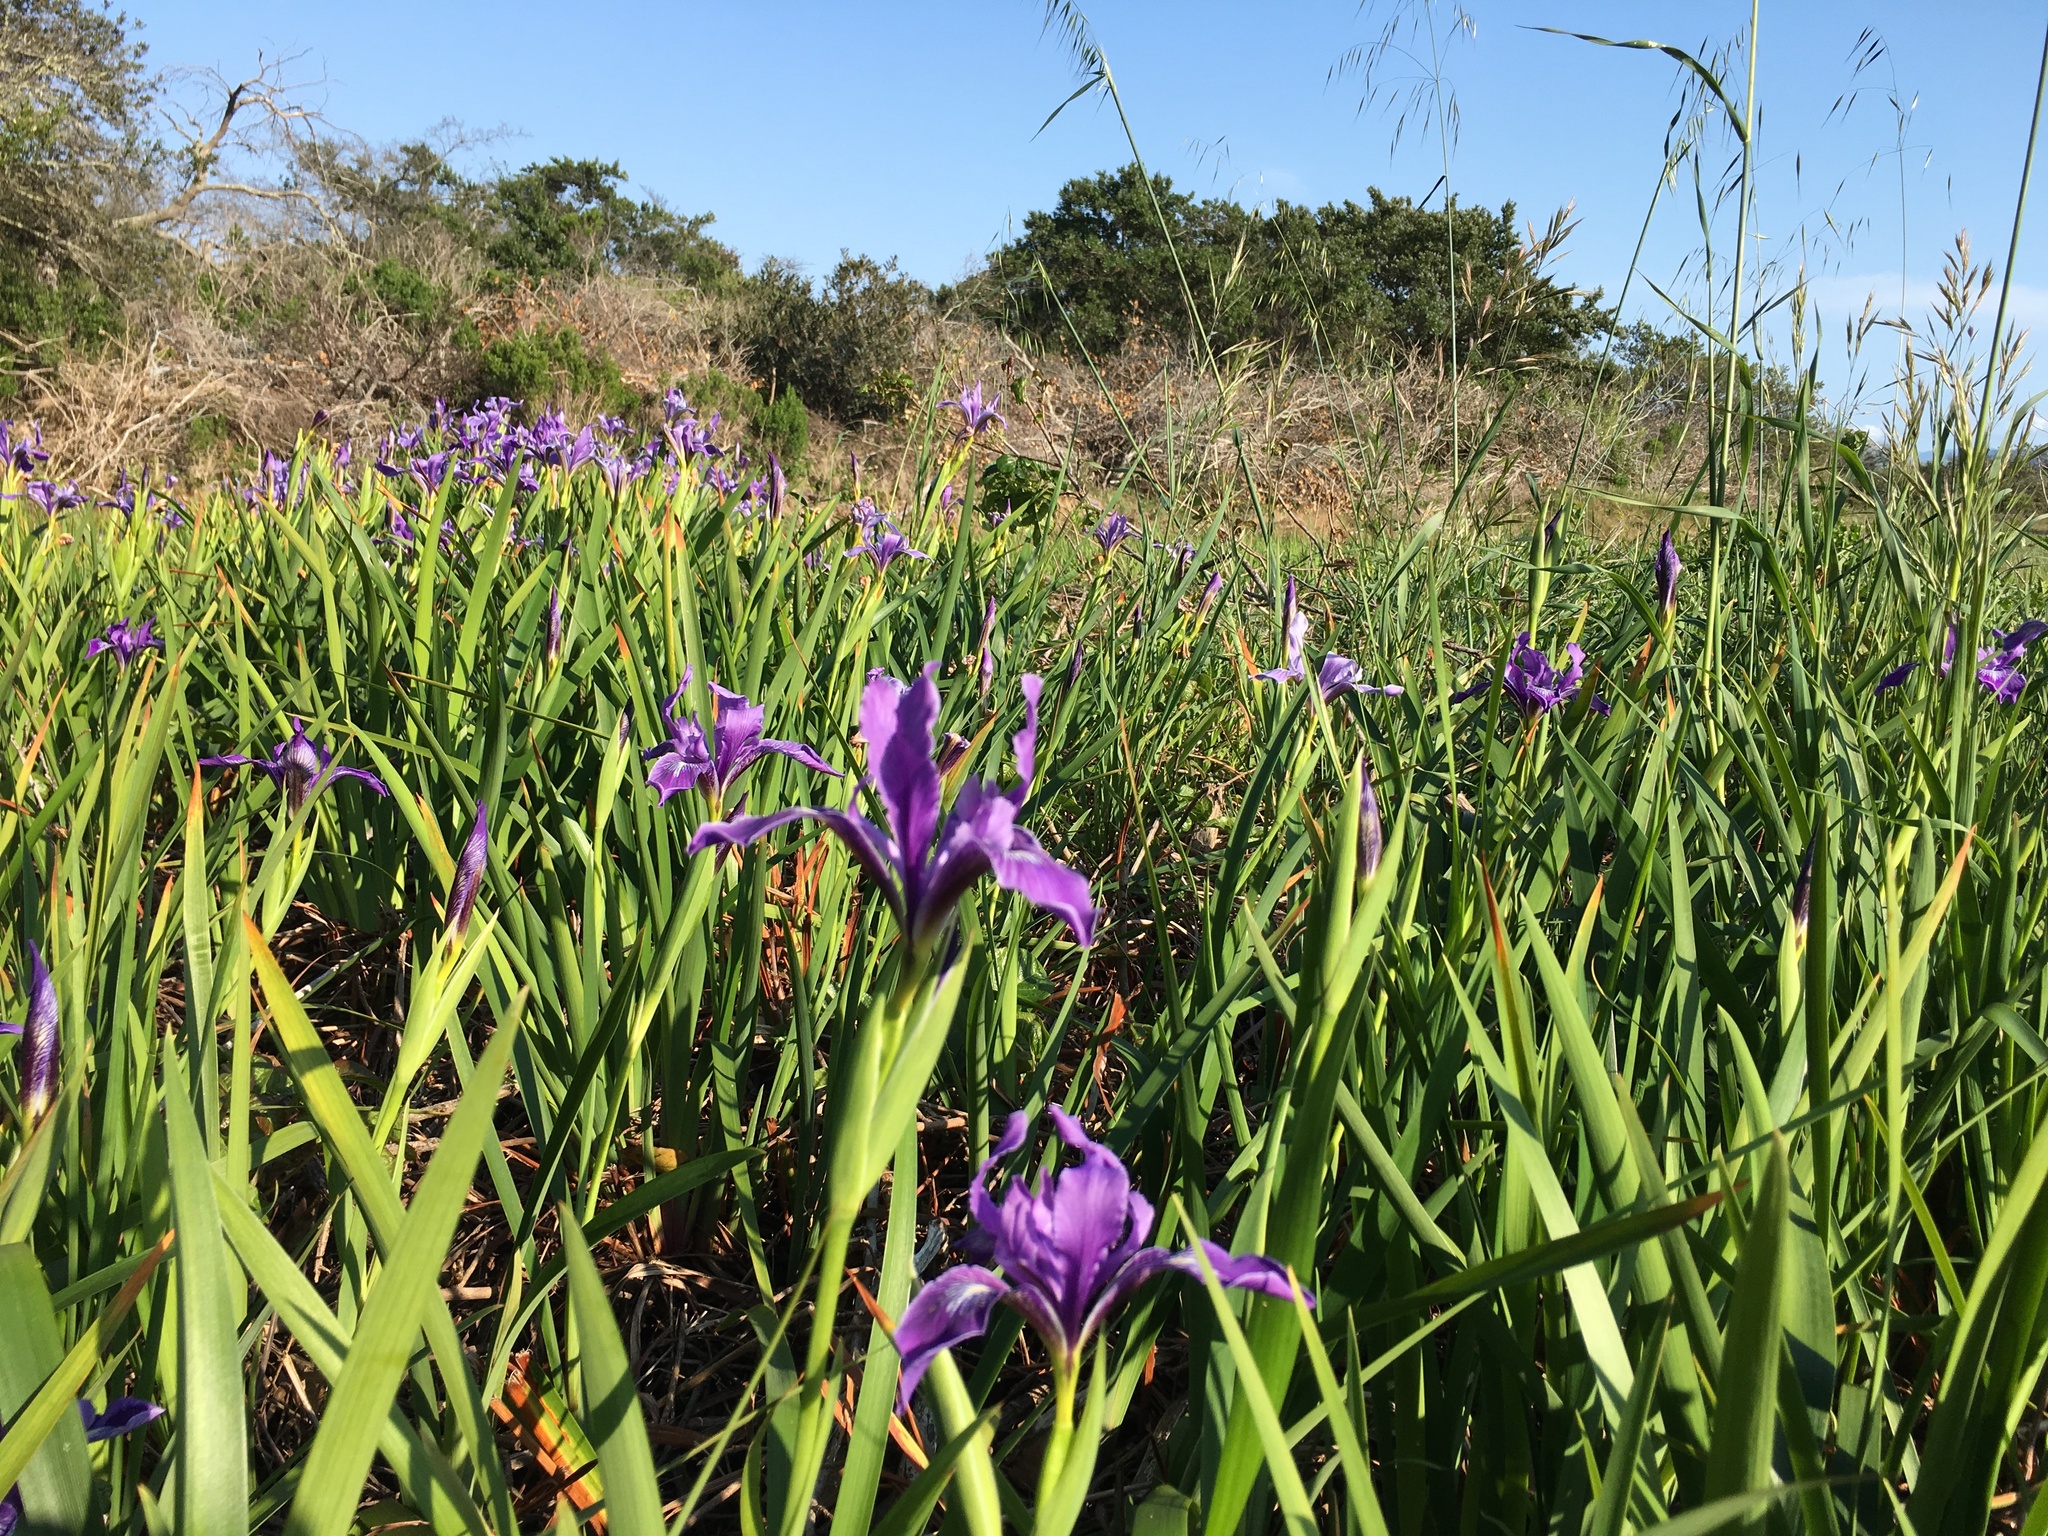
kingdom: Plantae
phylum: Tracheophyta
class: Liliopsida
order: Asparagales
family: Iridaceae
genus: Iris
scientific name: Iris douglasiana
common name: Marin iris
